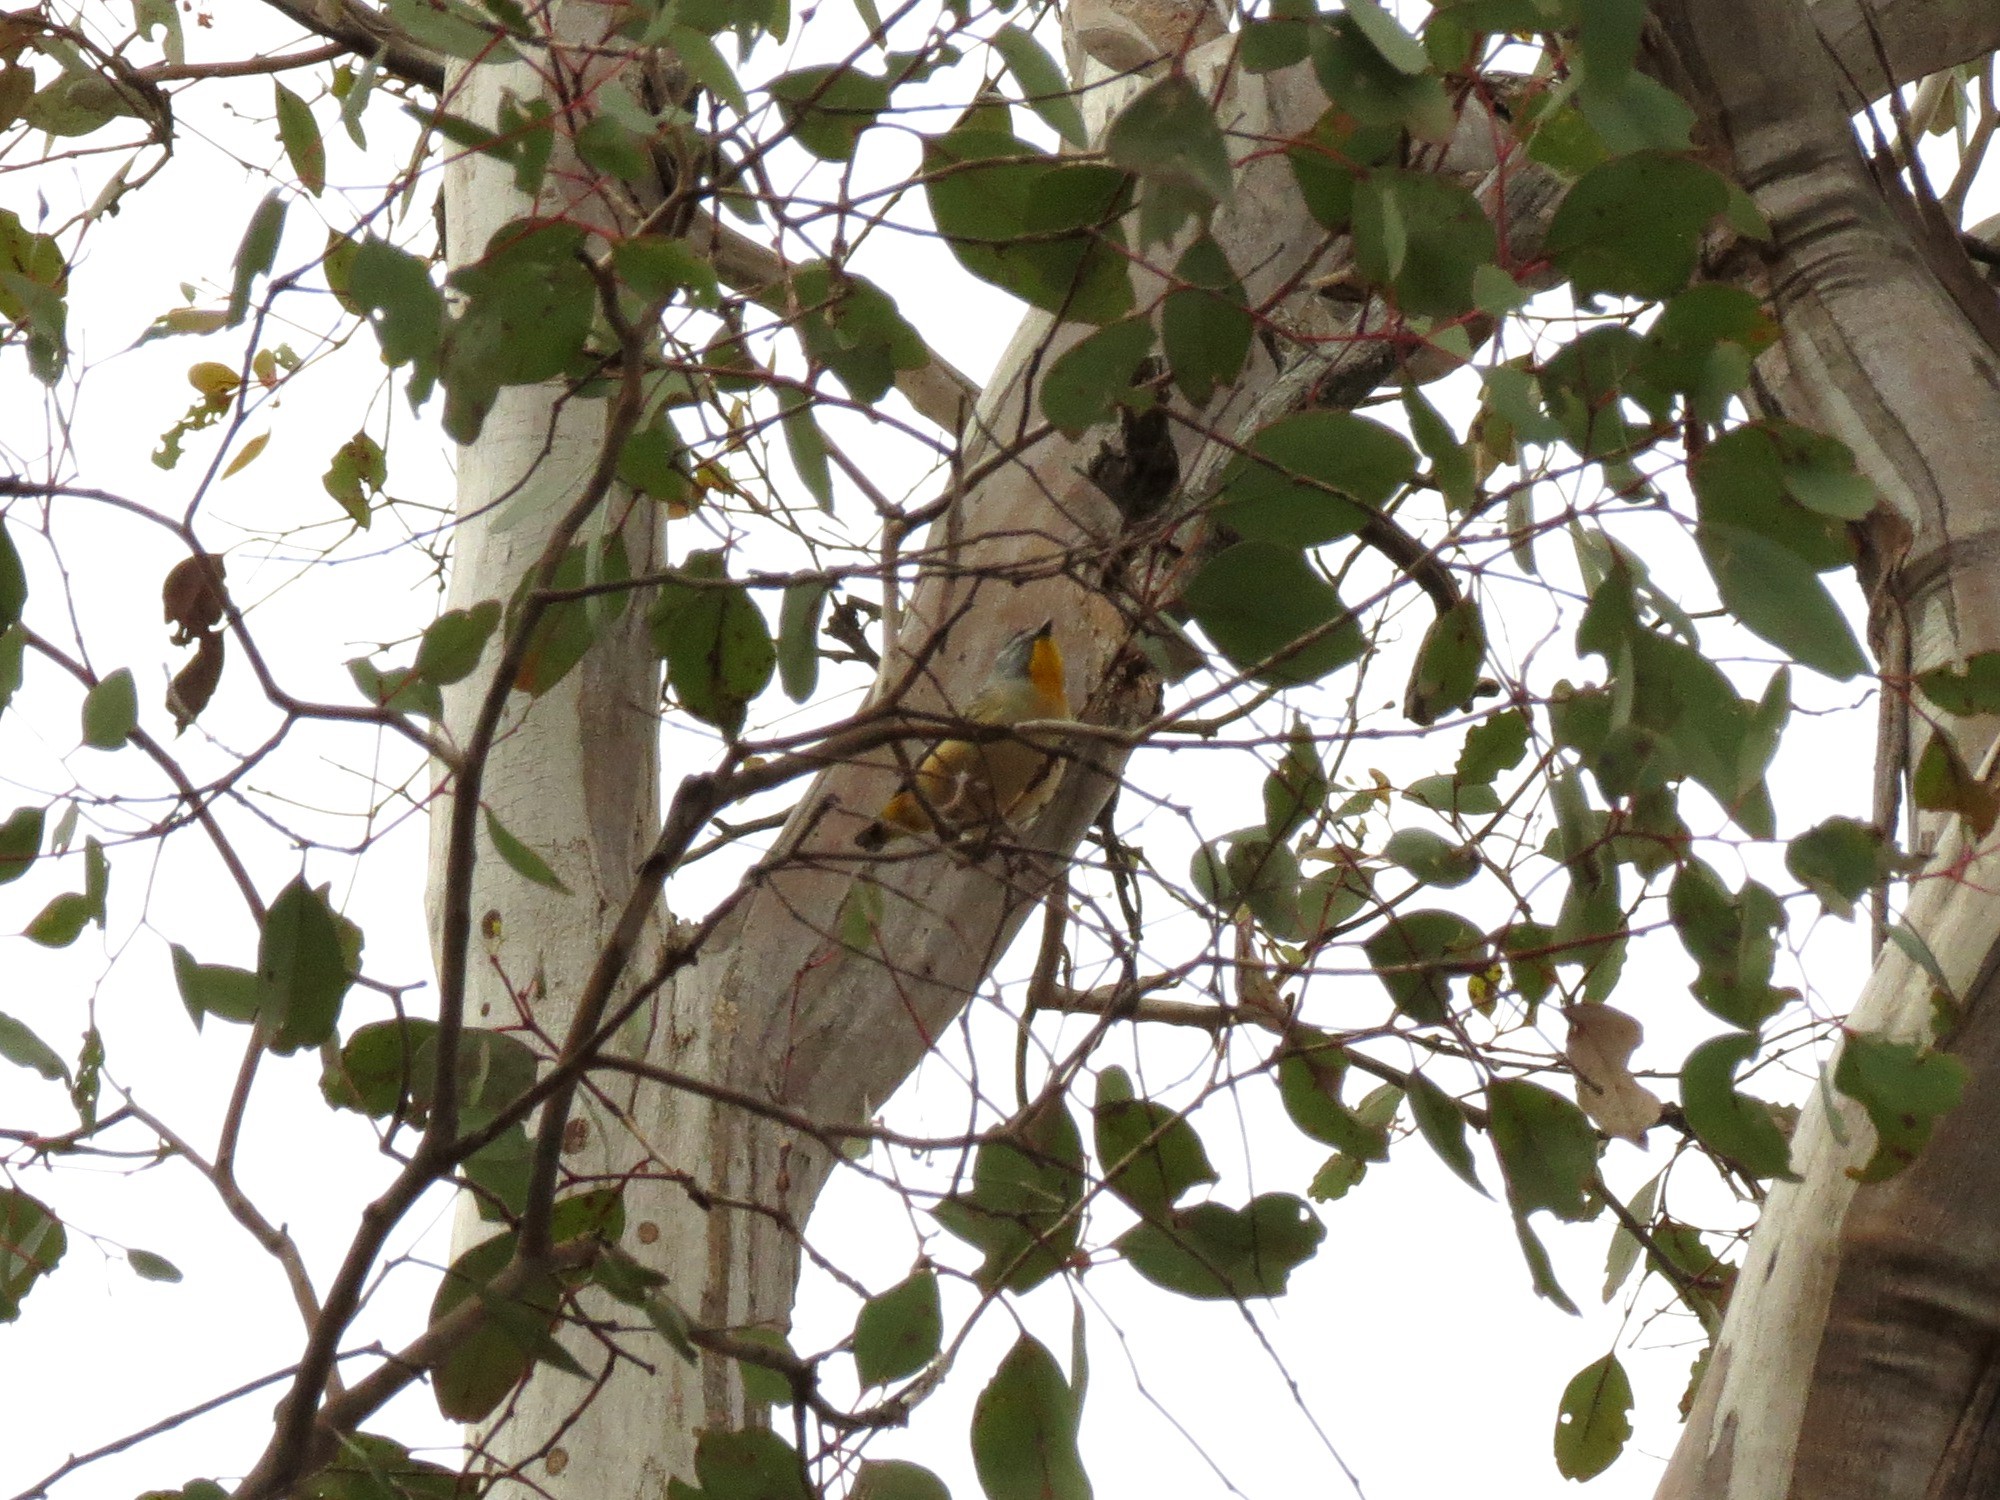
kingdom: Animalia
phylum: Chordata
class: Aves
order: Passeriformes
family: Pardalotidae
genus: Pardalotus
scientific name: Pardalotus punctatus
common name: Spotted pardalote
